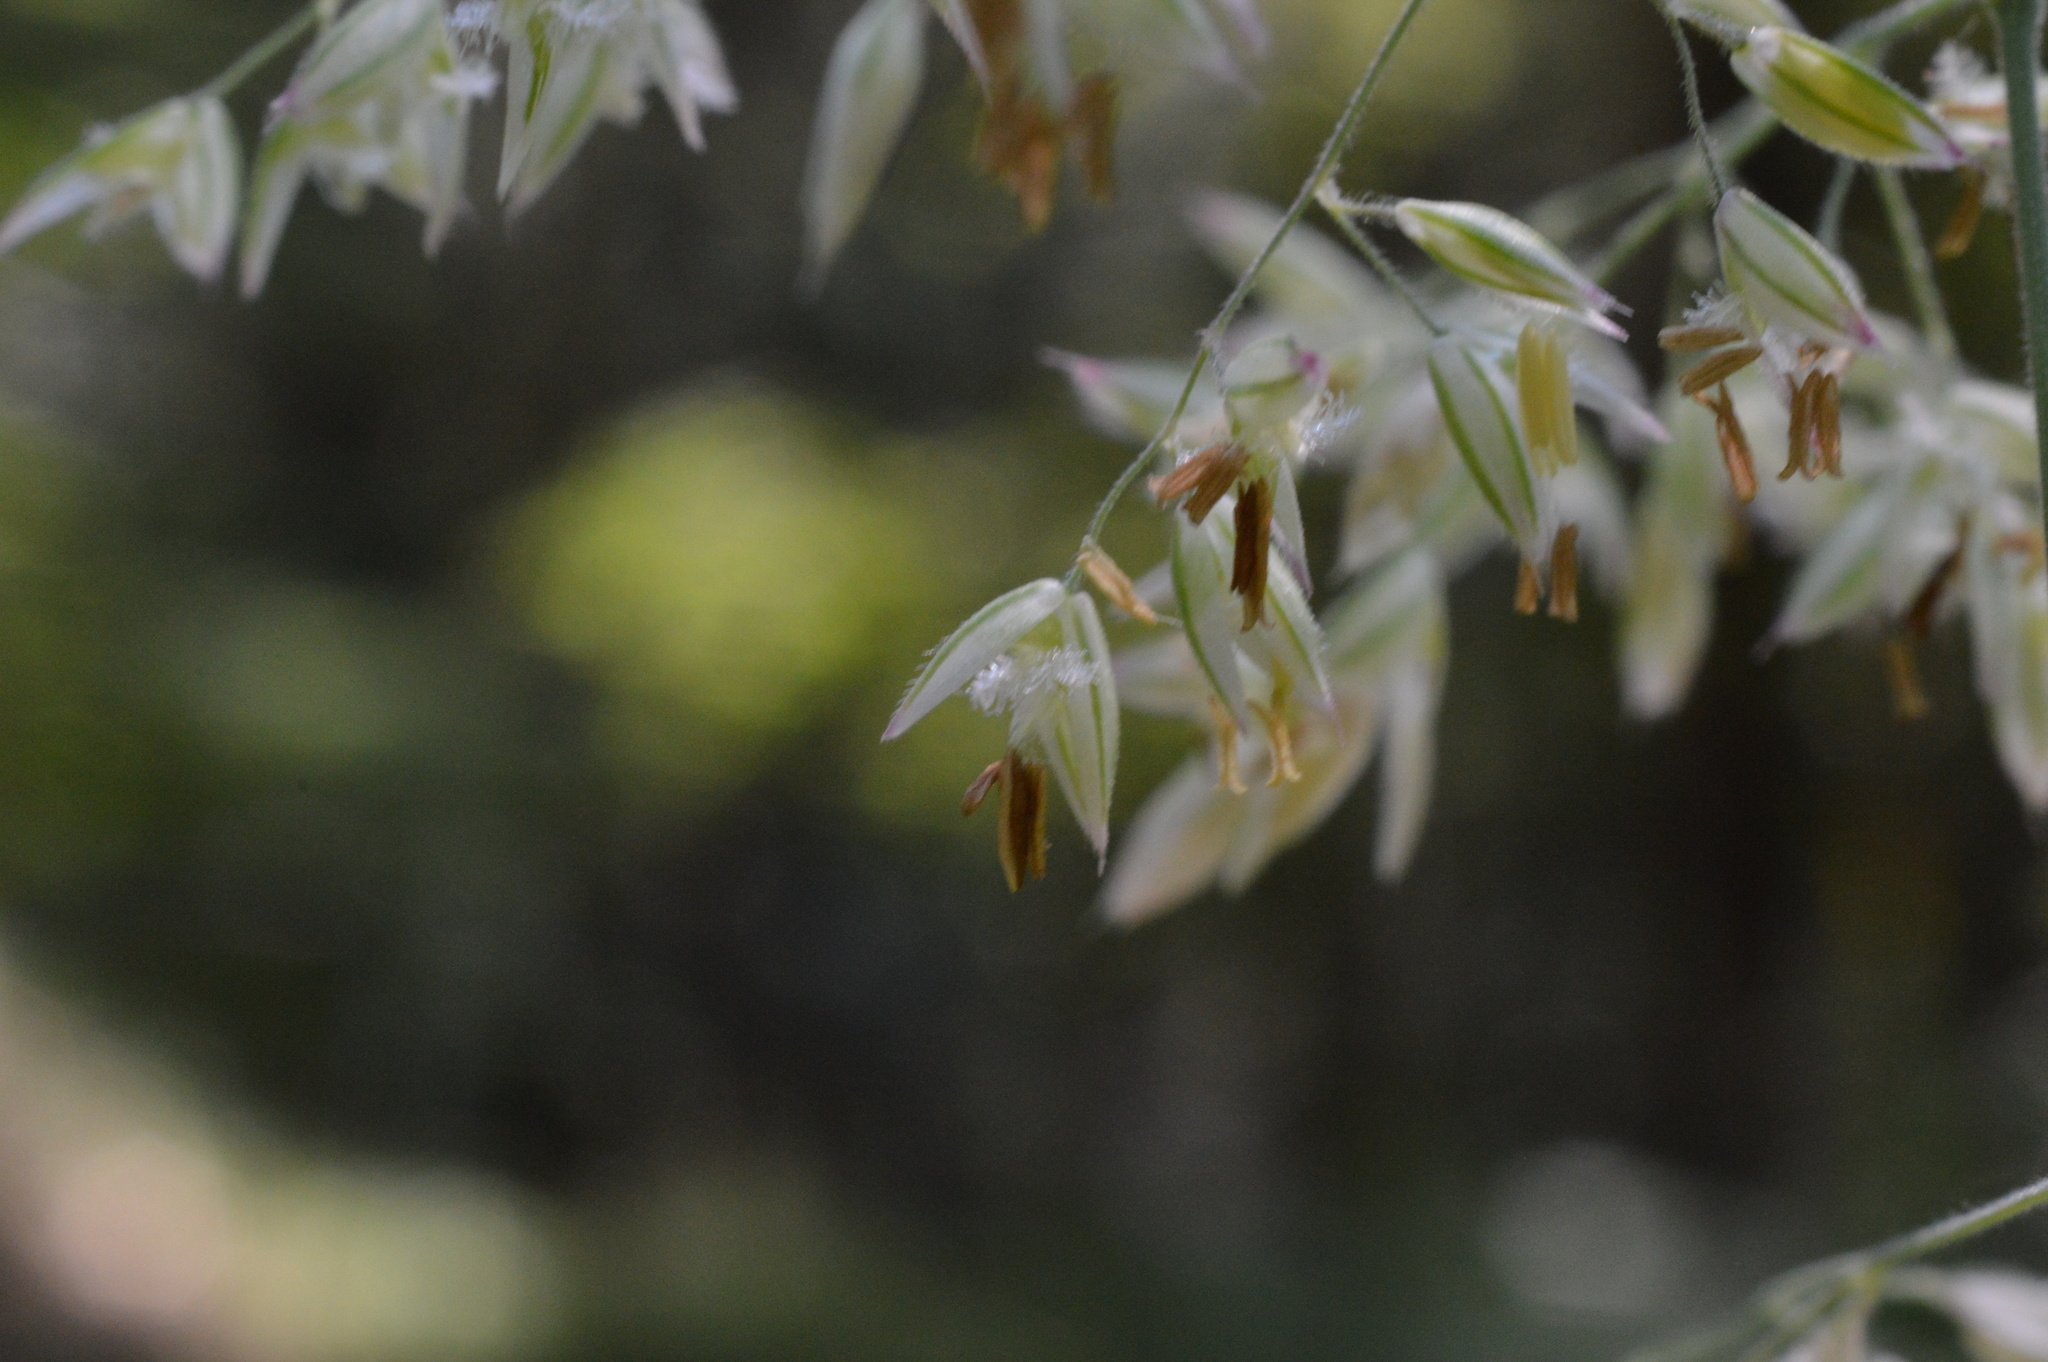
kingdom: Plantae
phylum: Tracheophyta
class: Liliopsida
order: Poales
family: Poaceae
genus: Holcus
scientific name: Holcus lanatus
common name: Yorkshire-fog
